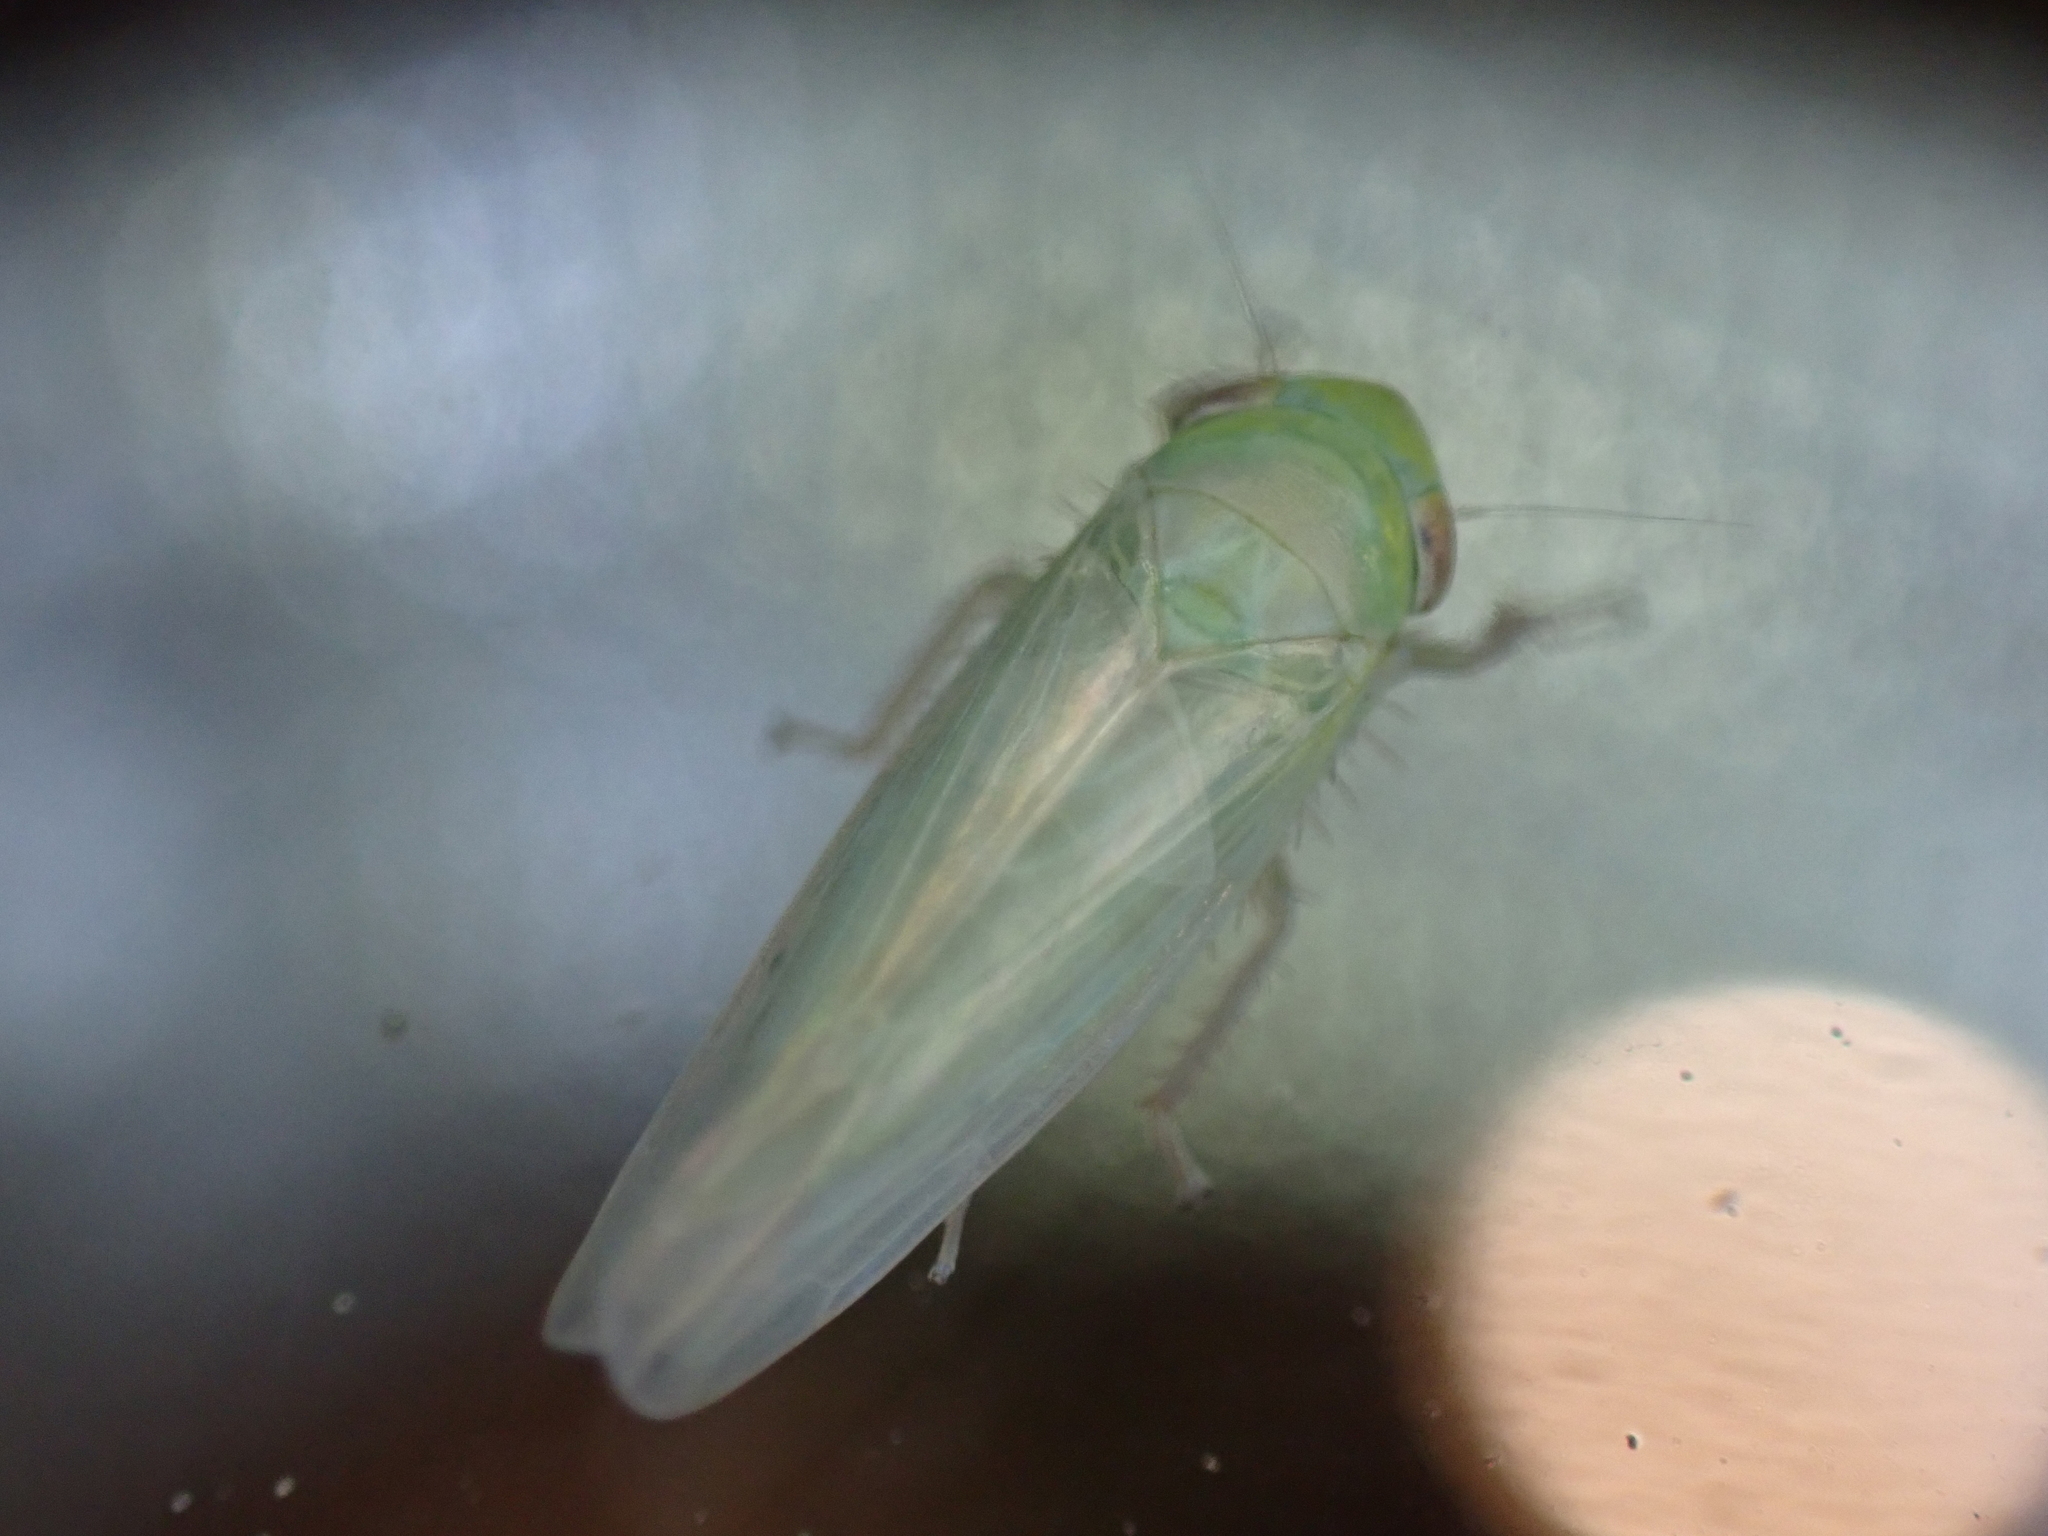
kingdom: Animalia
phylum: Arthropoda
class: Insecta
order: Hemiptera
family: Cicadellidae
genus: Chlorotettix
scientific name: Chlorotettix galbanatus
